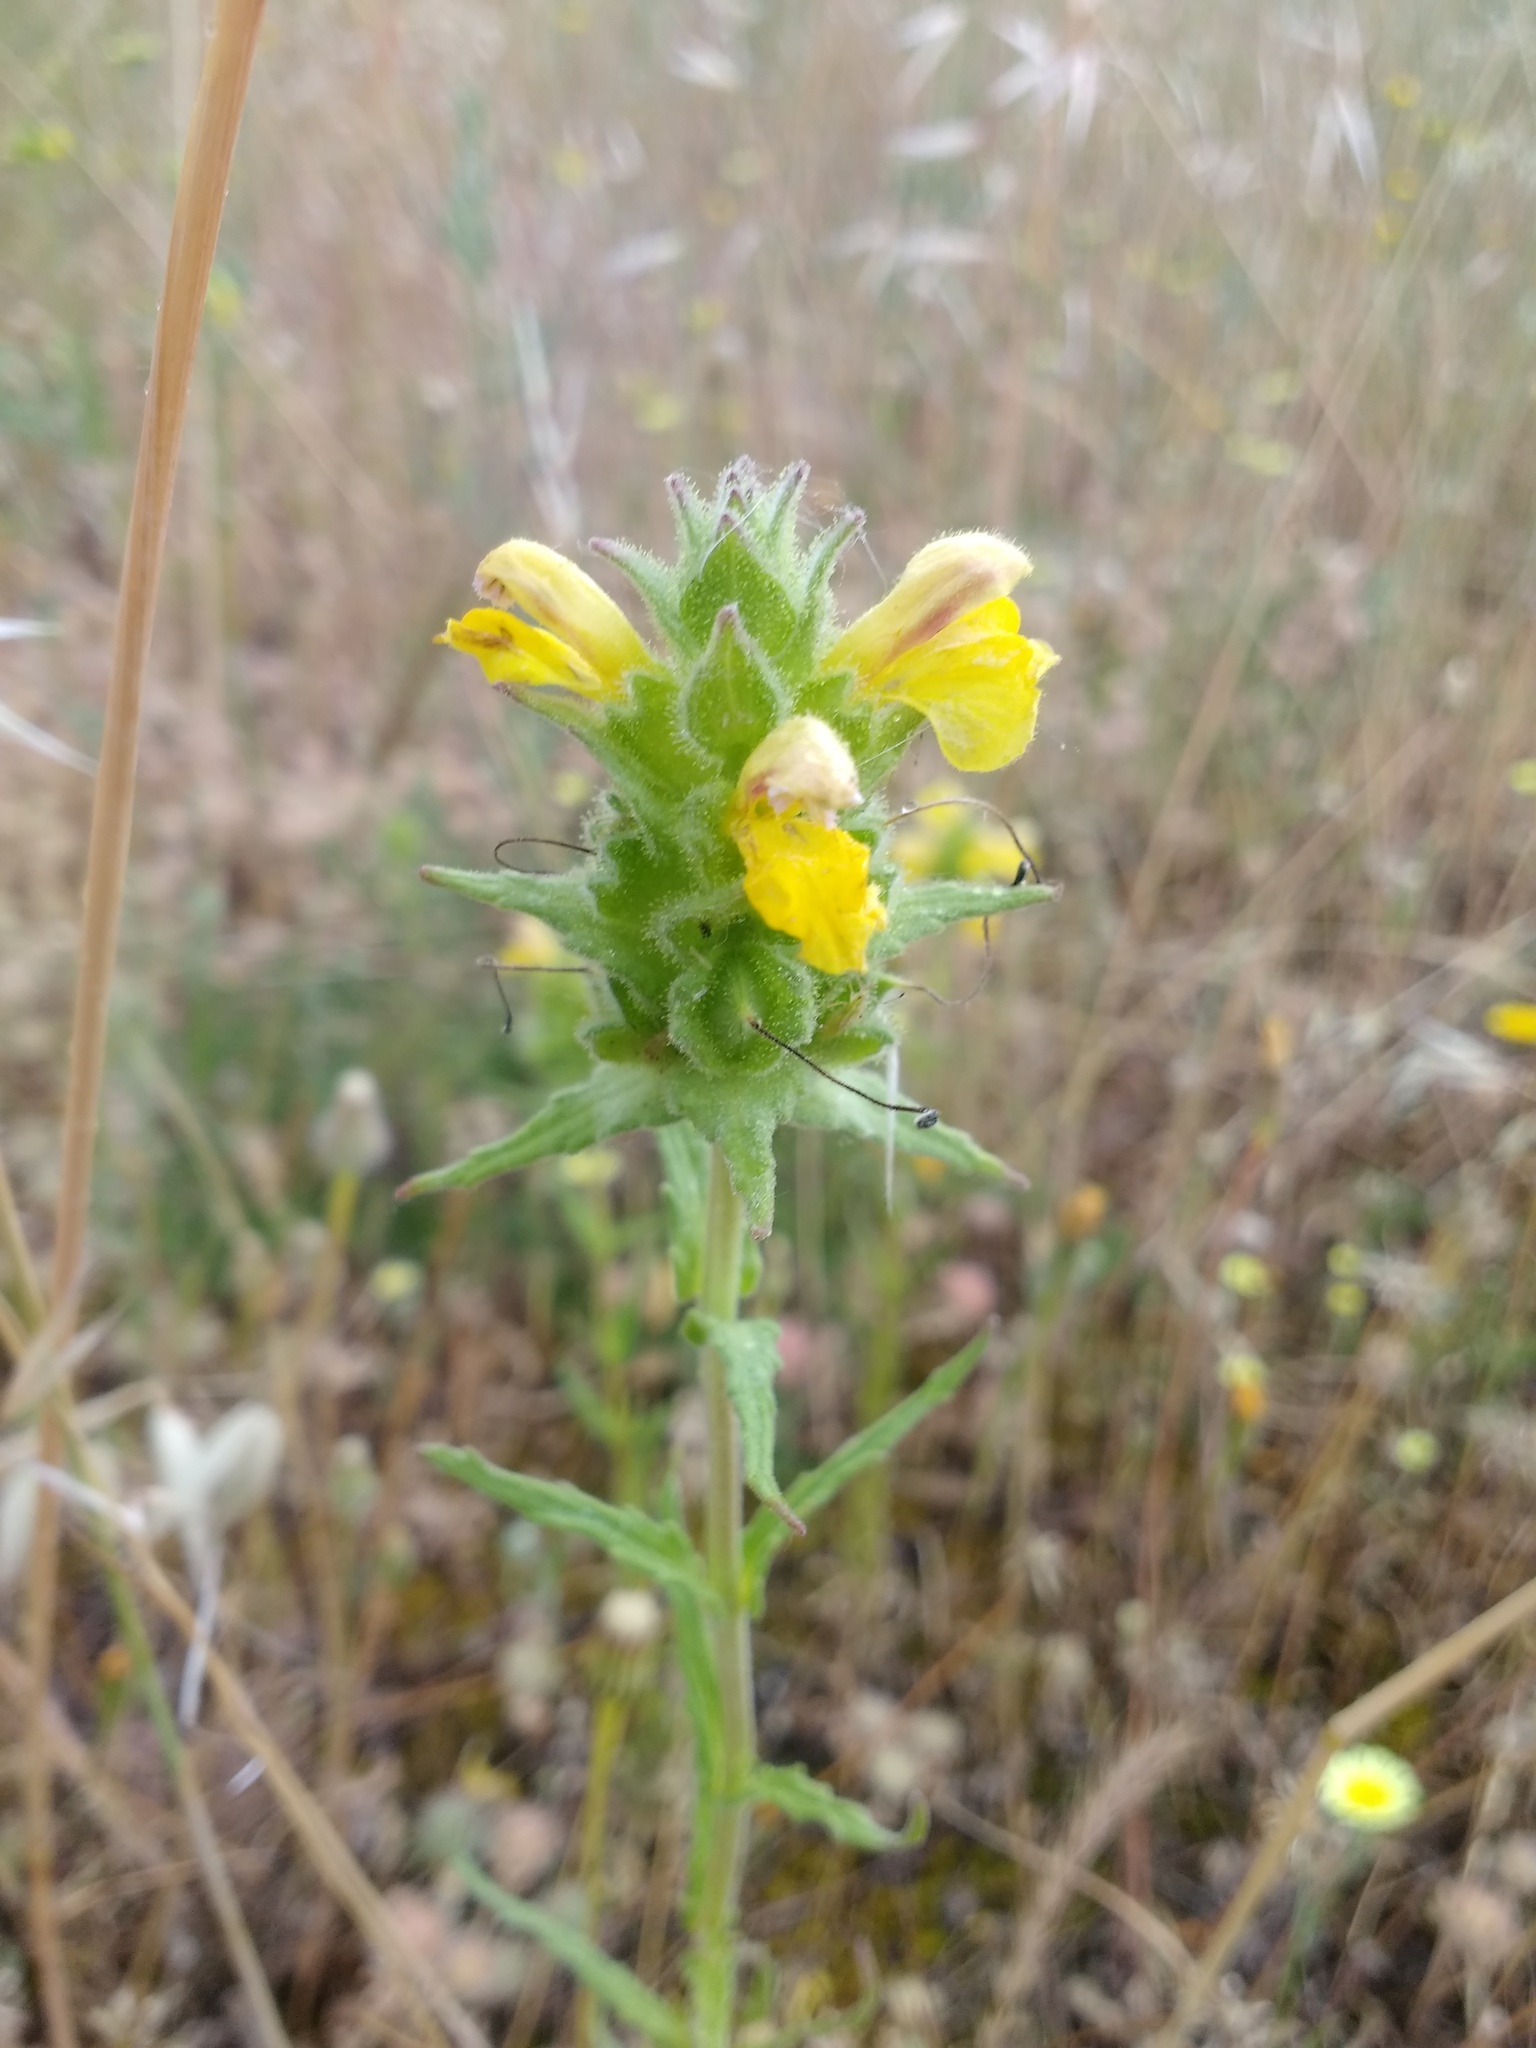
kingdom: Plantae
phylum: Tracheophyta
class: Magnoliopsida
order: Lamiales
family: Orobanchaceae
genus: Bellardia
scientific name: Bellardia trixago
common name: Mediterranean lineseed
